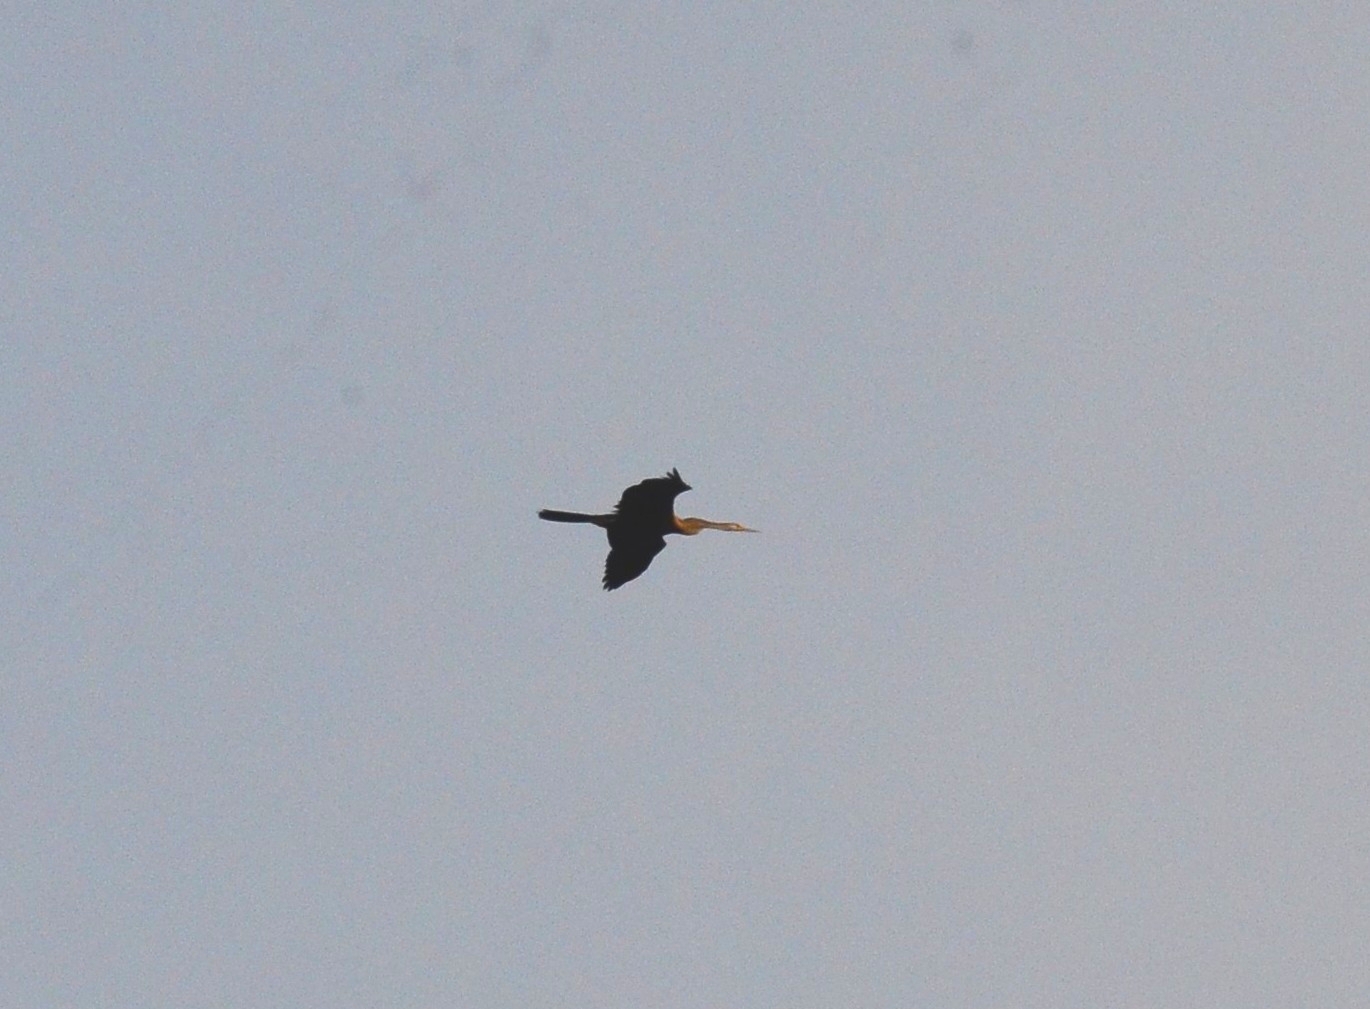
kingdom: Animalia
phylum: Chordata
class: Aves
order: Suliformes
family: Anhingidae
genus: Anhinga
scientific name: Anhinga melanogaster
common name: Oriental darter
